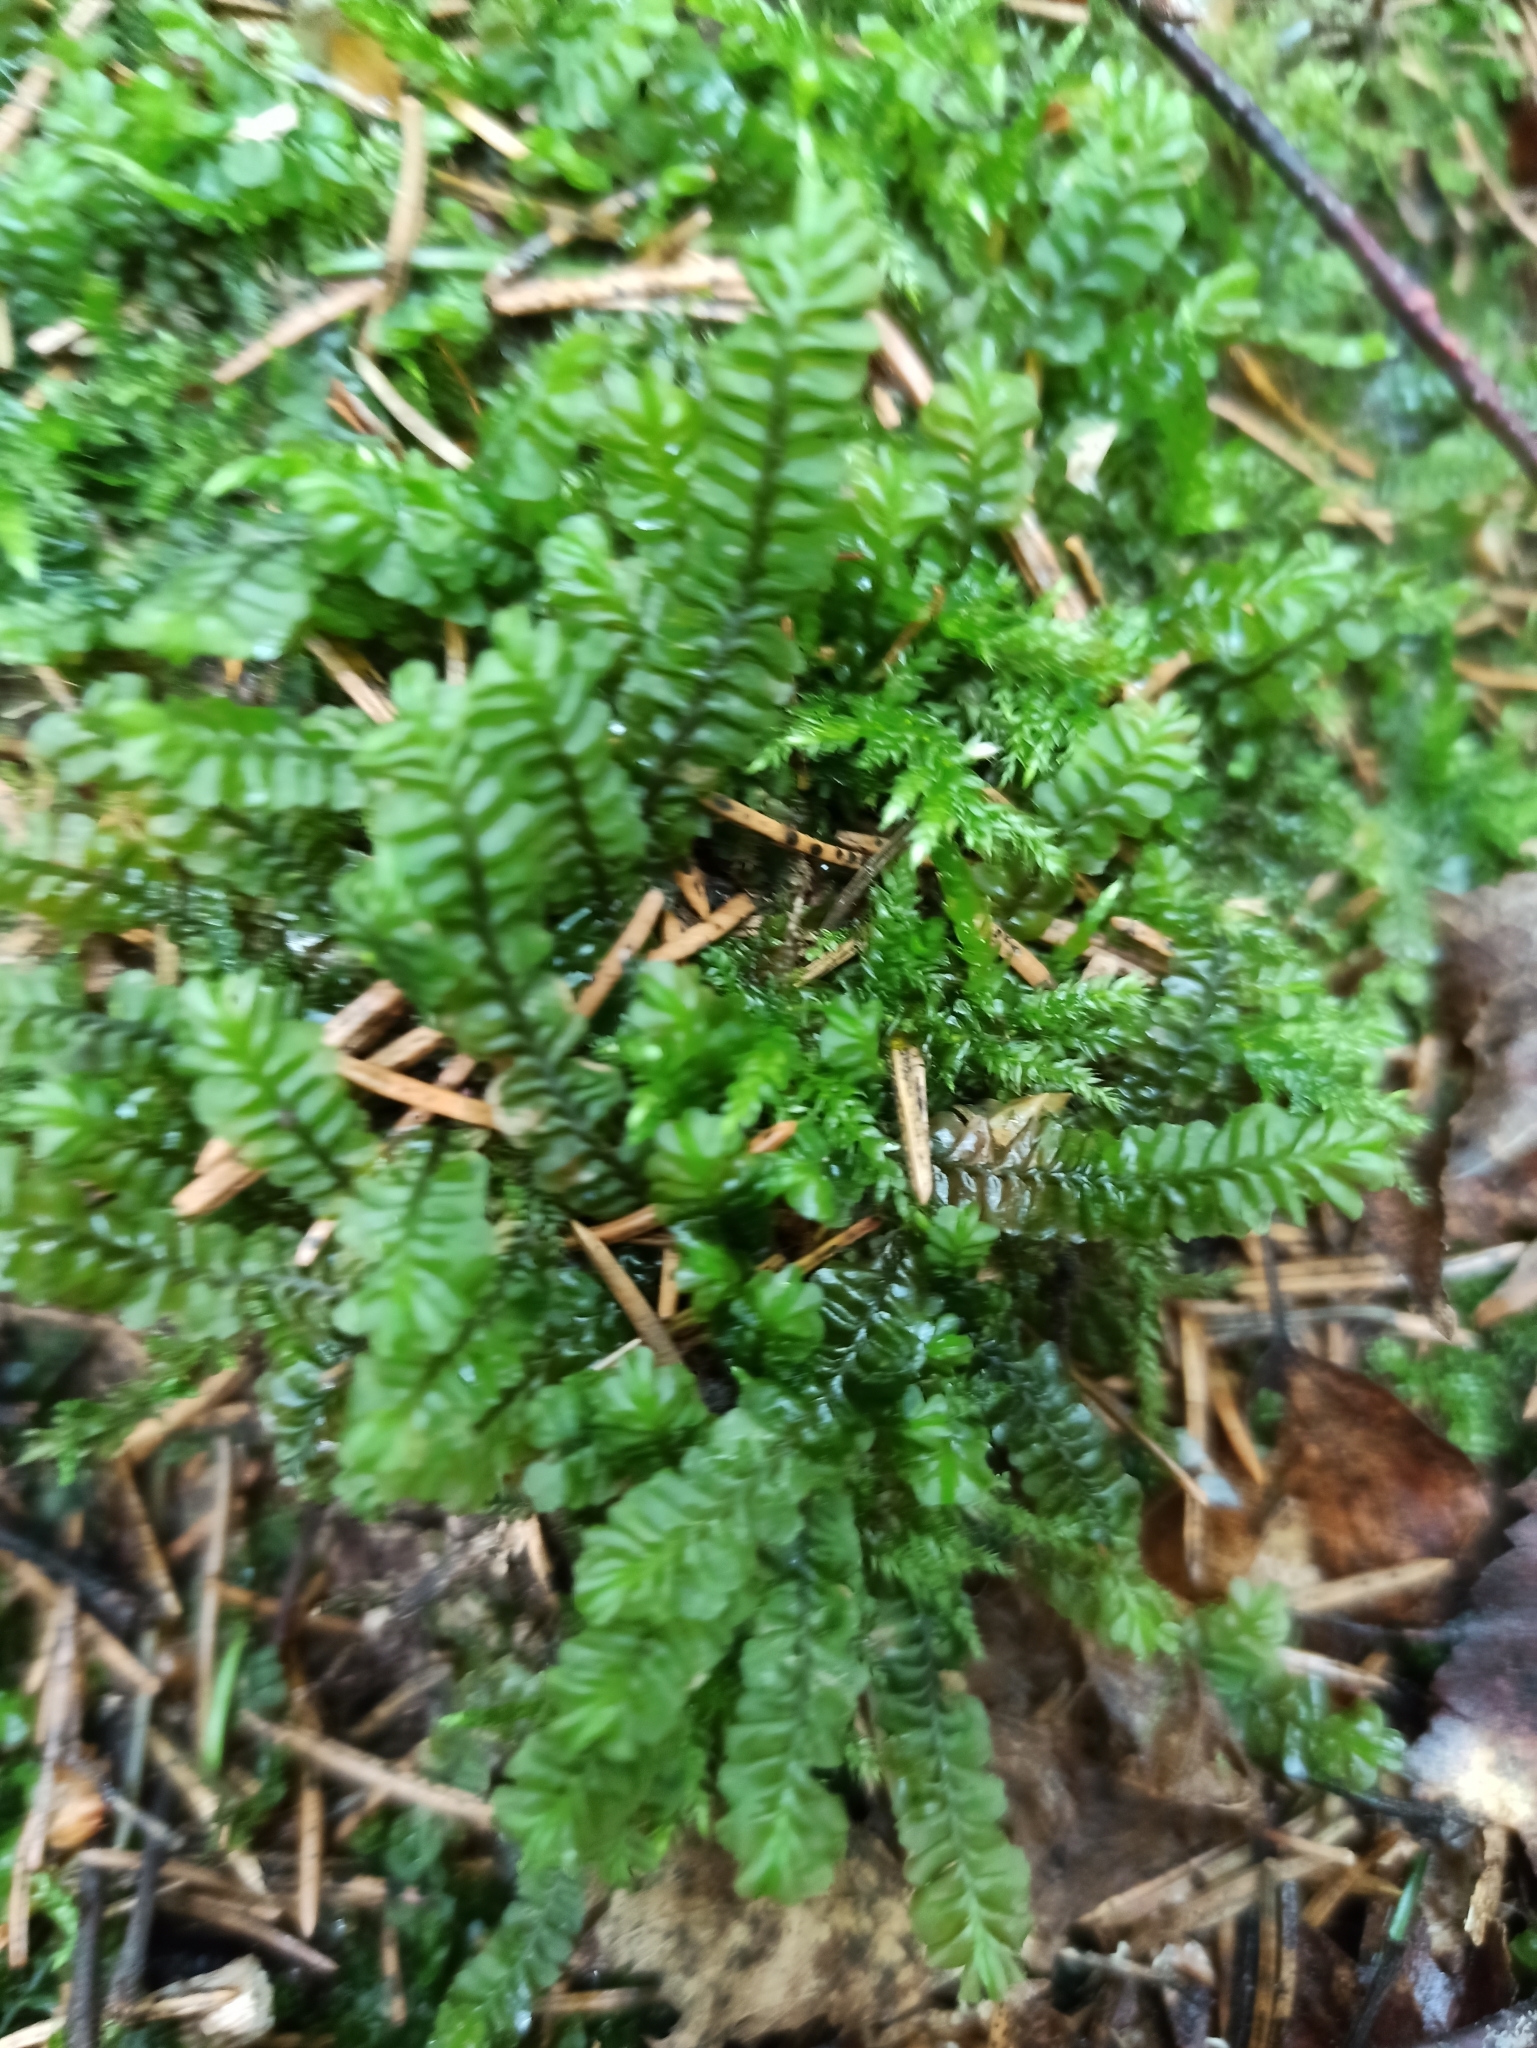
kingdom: Plantae
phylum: Marchantiophyta
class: Jungermanniopsida
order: Jungermanniales
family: Plagiochilaceae
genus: Plagiochila
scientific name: Plagiochila asplenioides
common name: Greater featherwort
